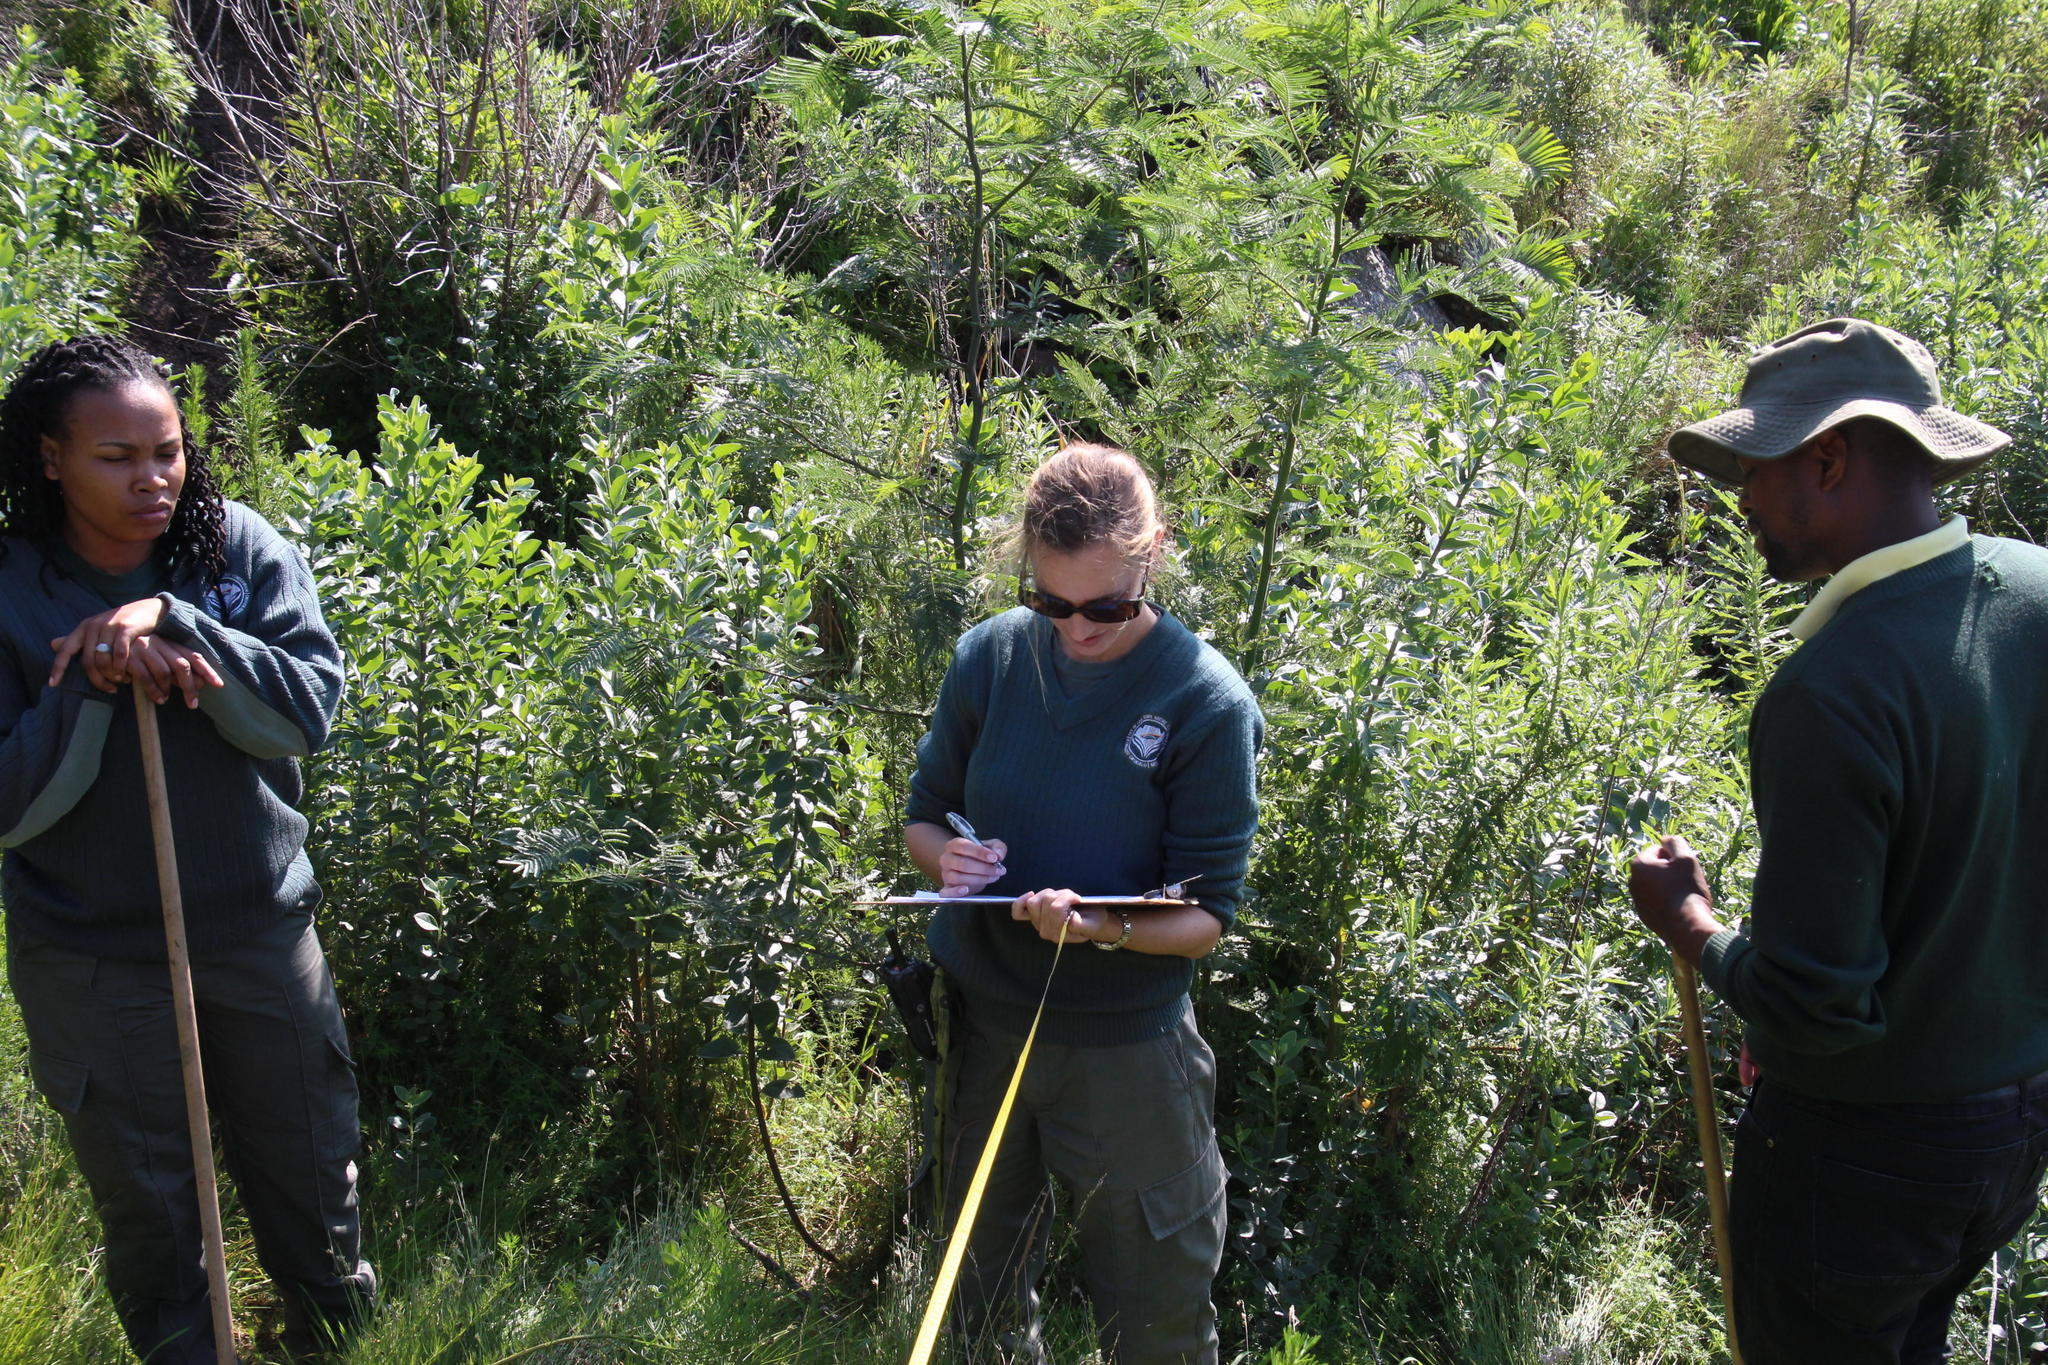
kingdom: Plantae
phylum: Tracheophyta
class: Magnoliopsida
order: Asterales
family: Asteraceae
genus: Senecio
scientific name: Senecio pterophorus
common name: Shoddy ragwort
